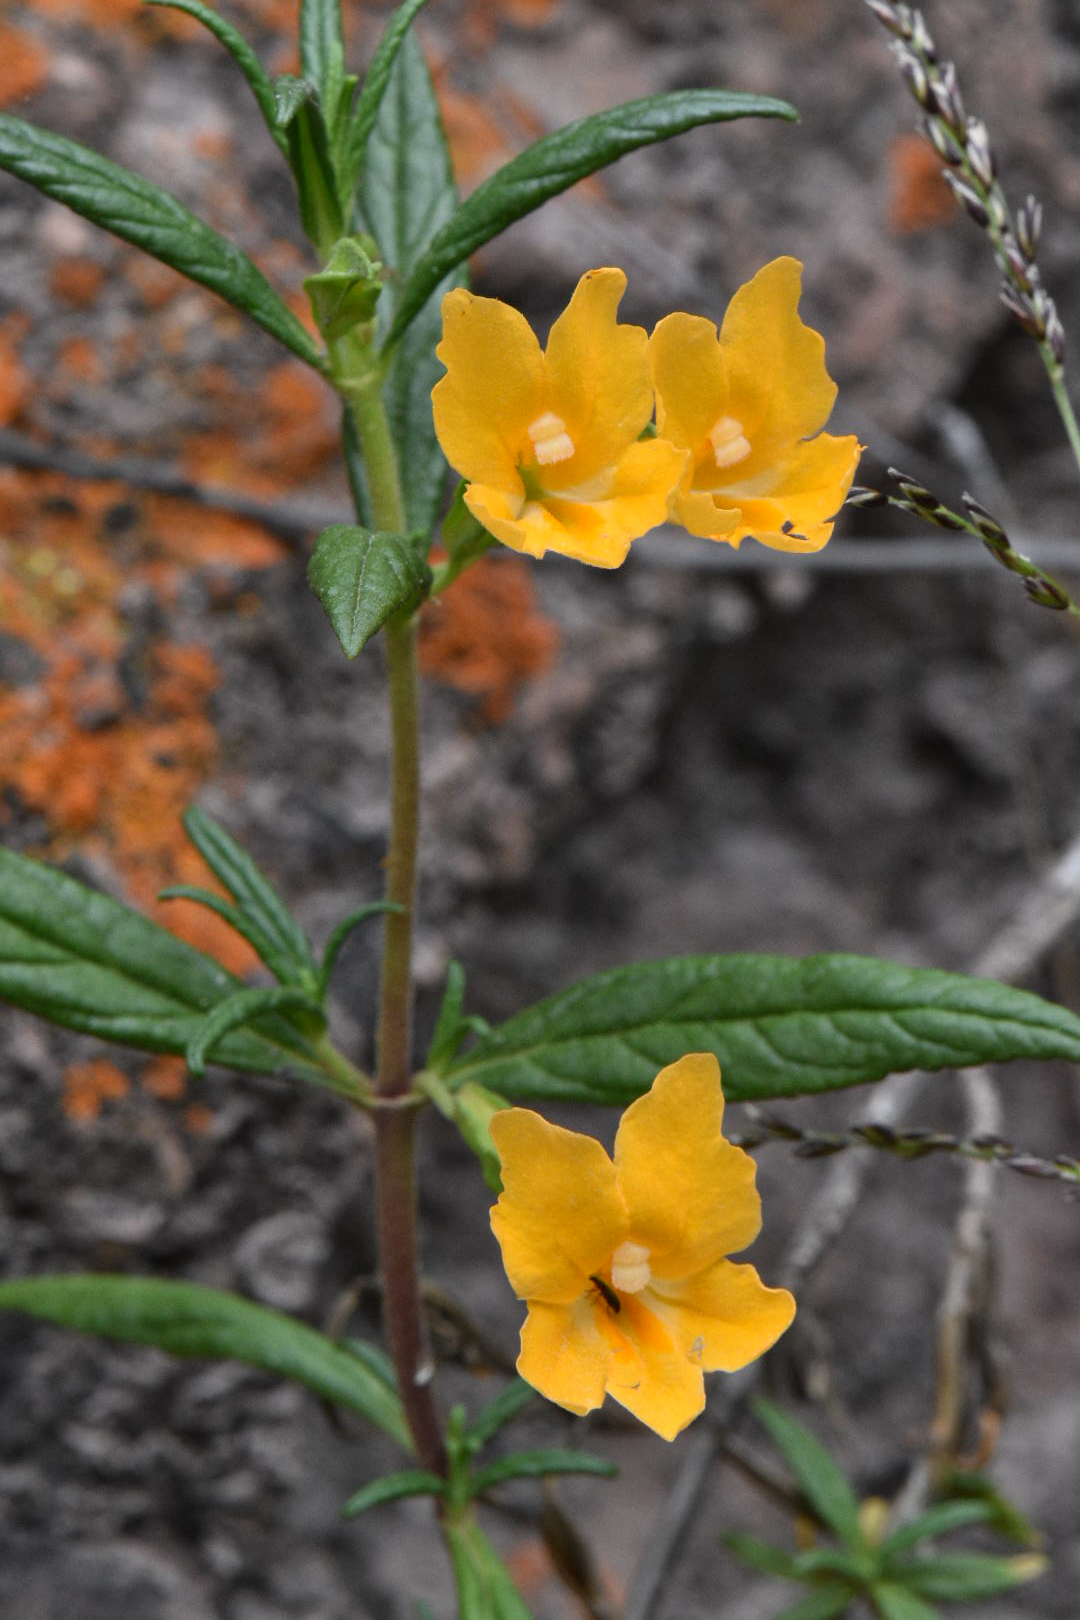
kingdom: Plantae
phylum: Tracheophyta
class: Magnoliopsida
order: Lamiales
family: Phrymaceae
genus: Diplacus
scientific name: Diplacus aurantiacus
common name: Bush monkey-flower
